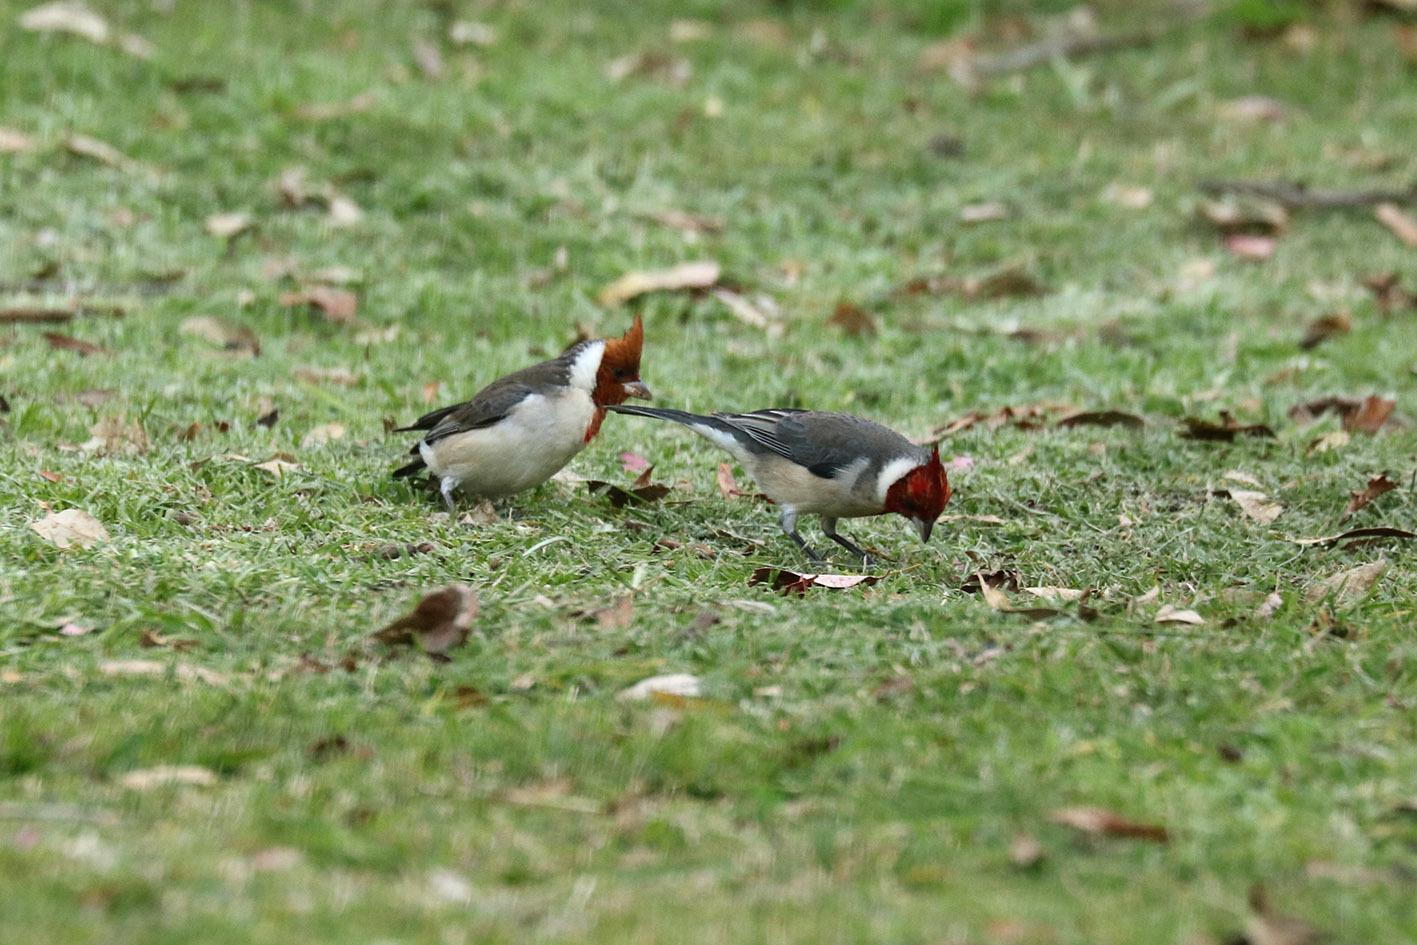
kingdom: Animalia
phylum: Chordata
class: Aves
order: Passeriformes
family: Thraupidae
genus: Paroaria
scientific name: Paroaria coronata
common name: Red-crested cardinal
